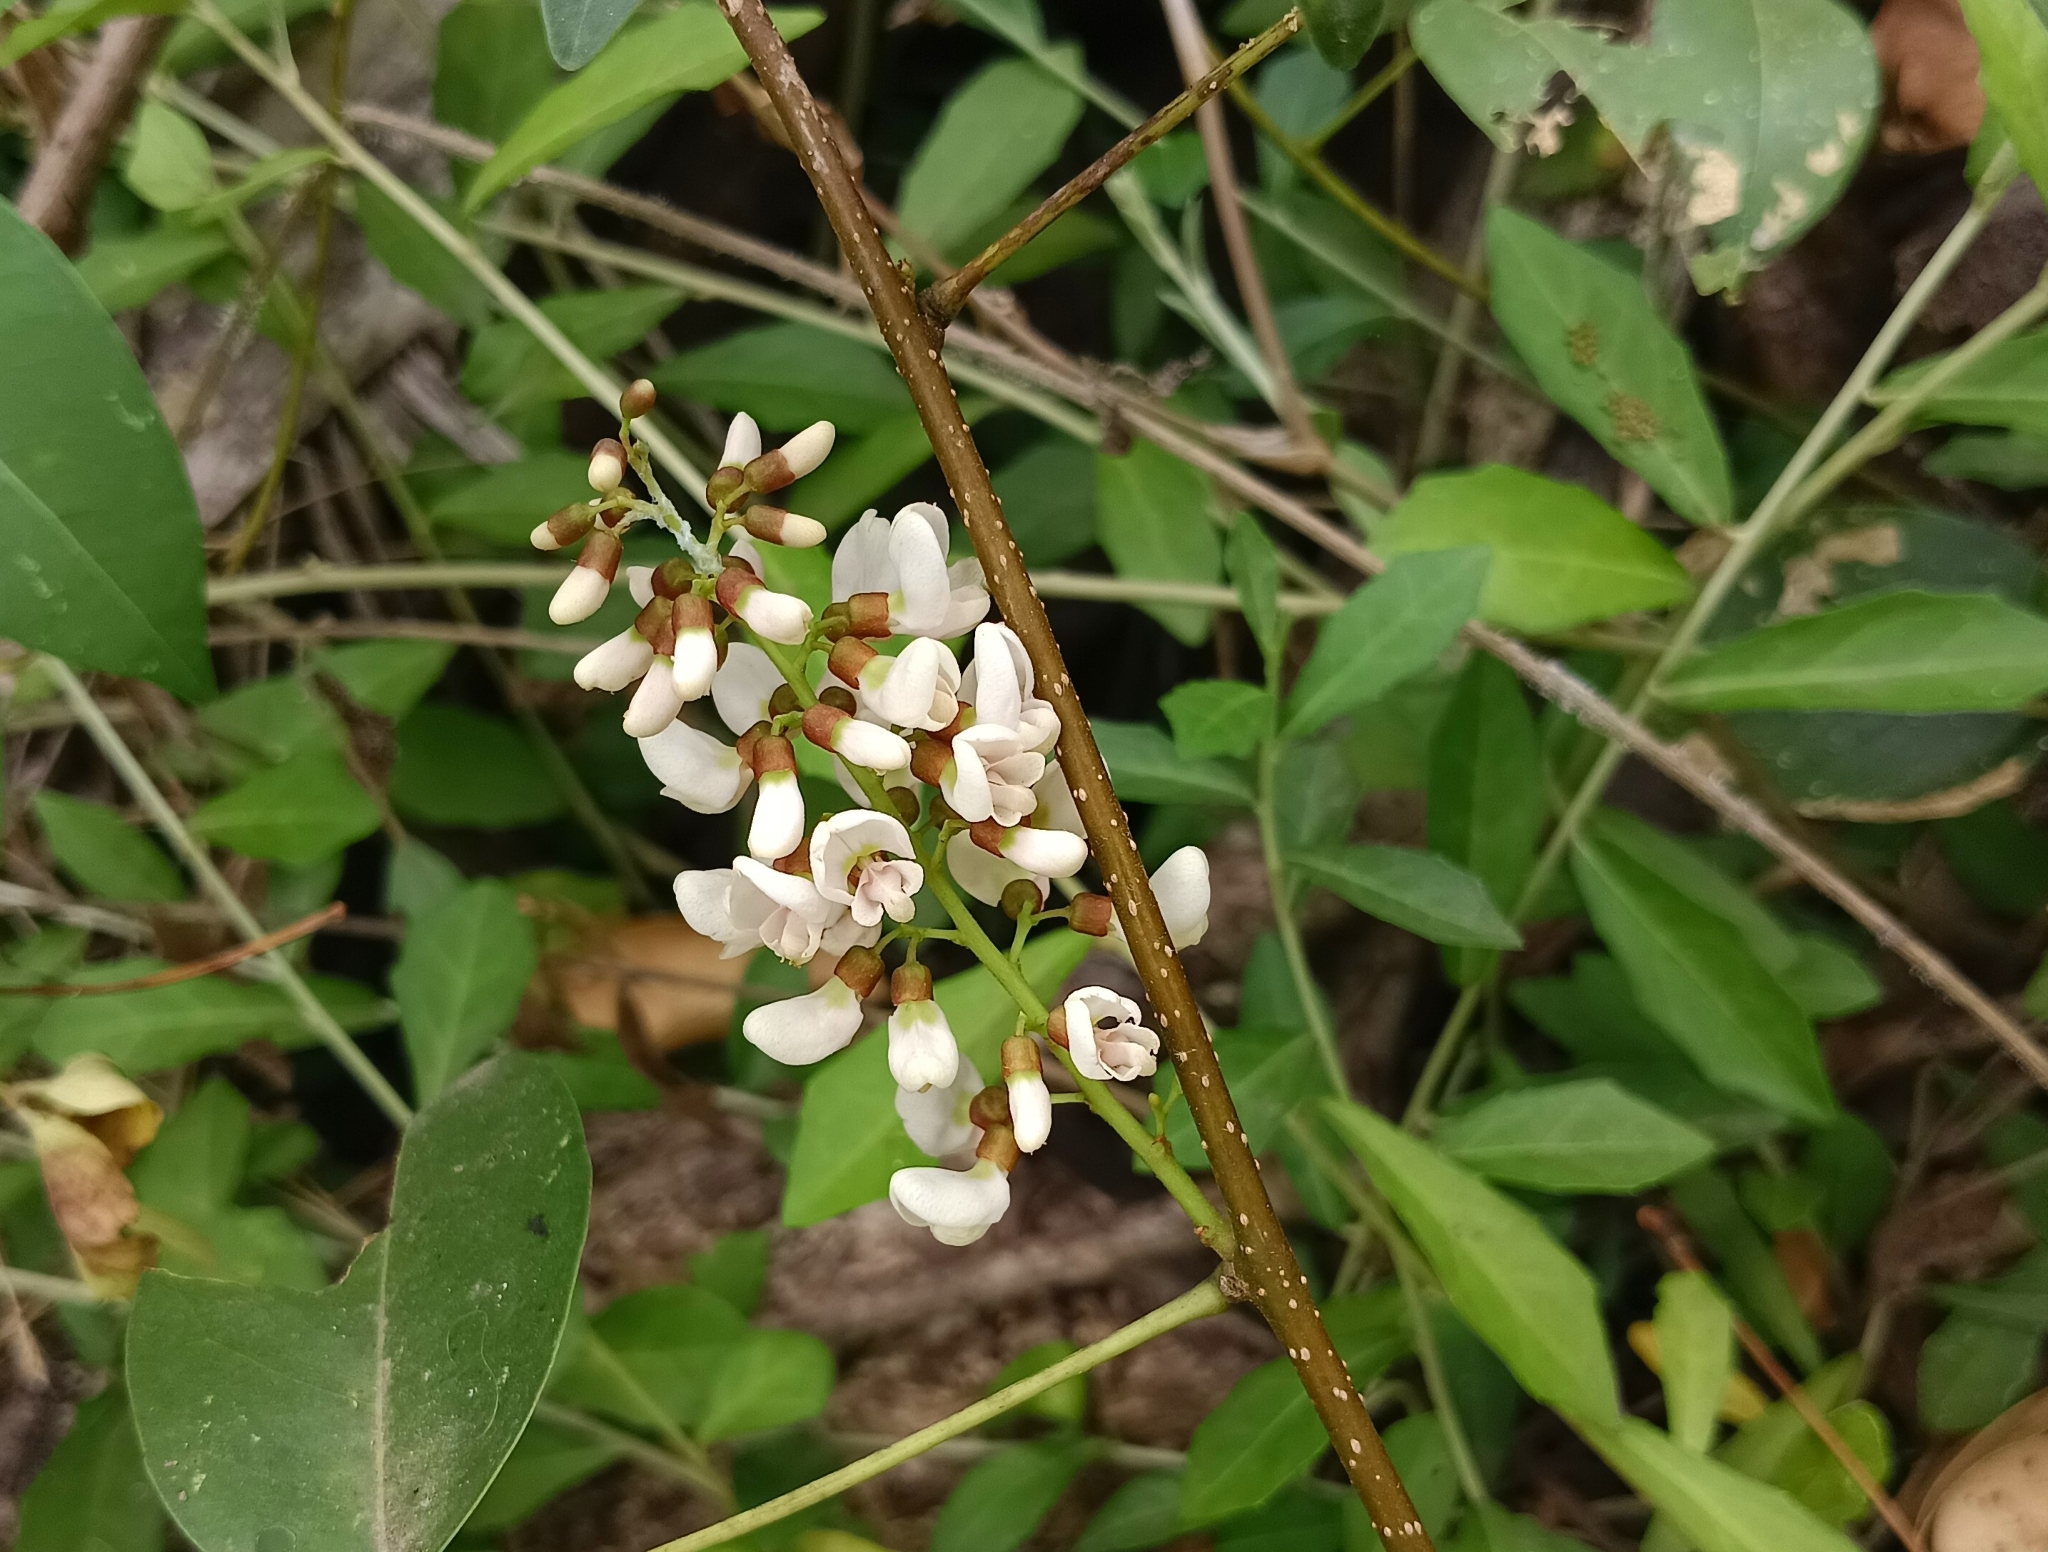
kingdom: Plantae
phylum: Tracheophyta
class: Magnoliopsida
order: Fabales
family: Fabaceae
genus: Derris
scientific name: Derris trifoliata
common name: Three-leaf derris
